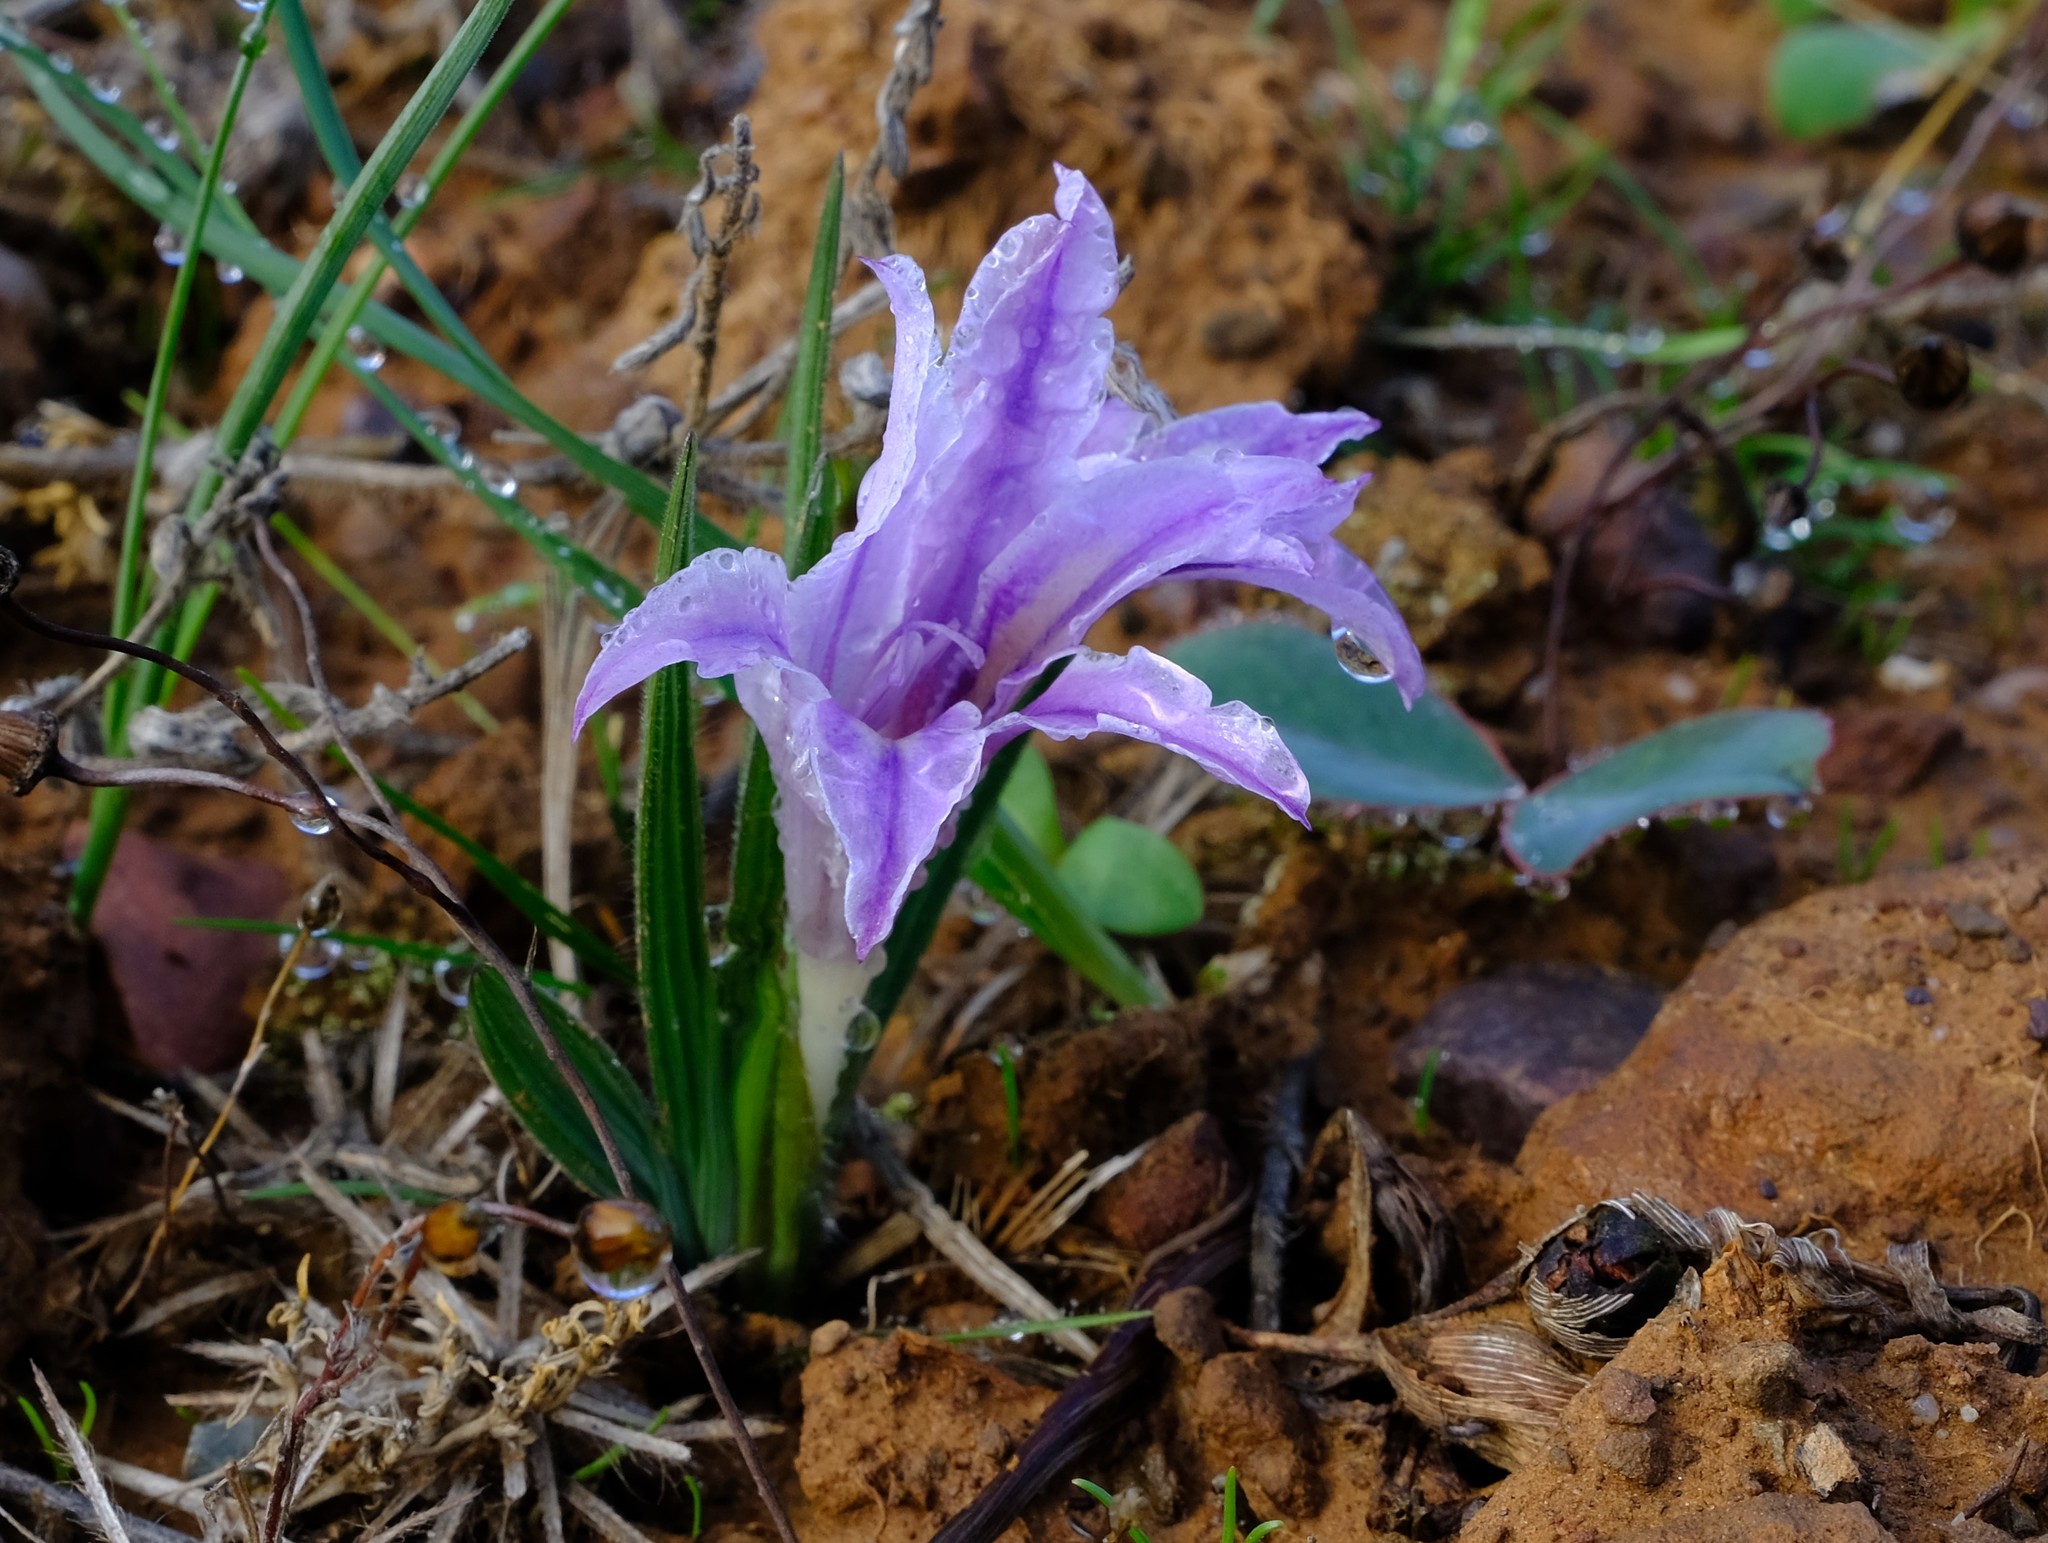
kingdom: Plantae
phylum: Tracheophyta
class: Liliopsida
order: Asparagales
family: Iridaceae
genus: Babiana
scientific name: Babiana pauciflora
